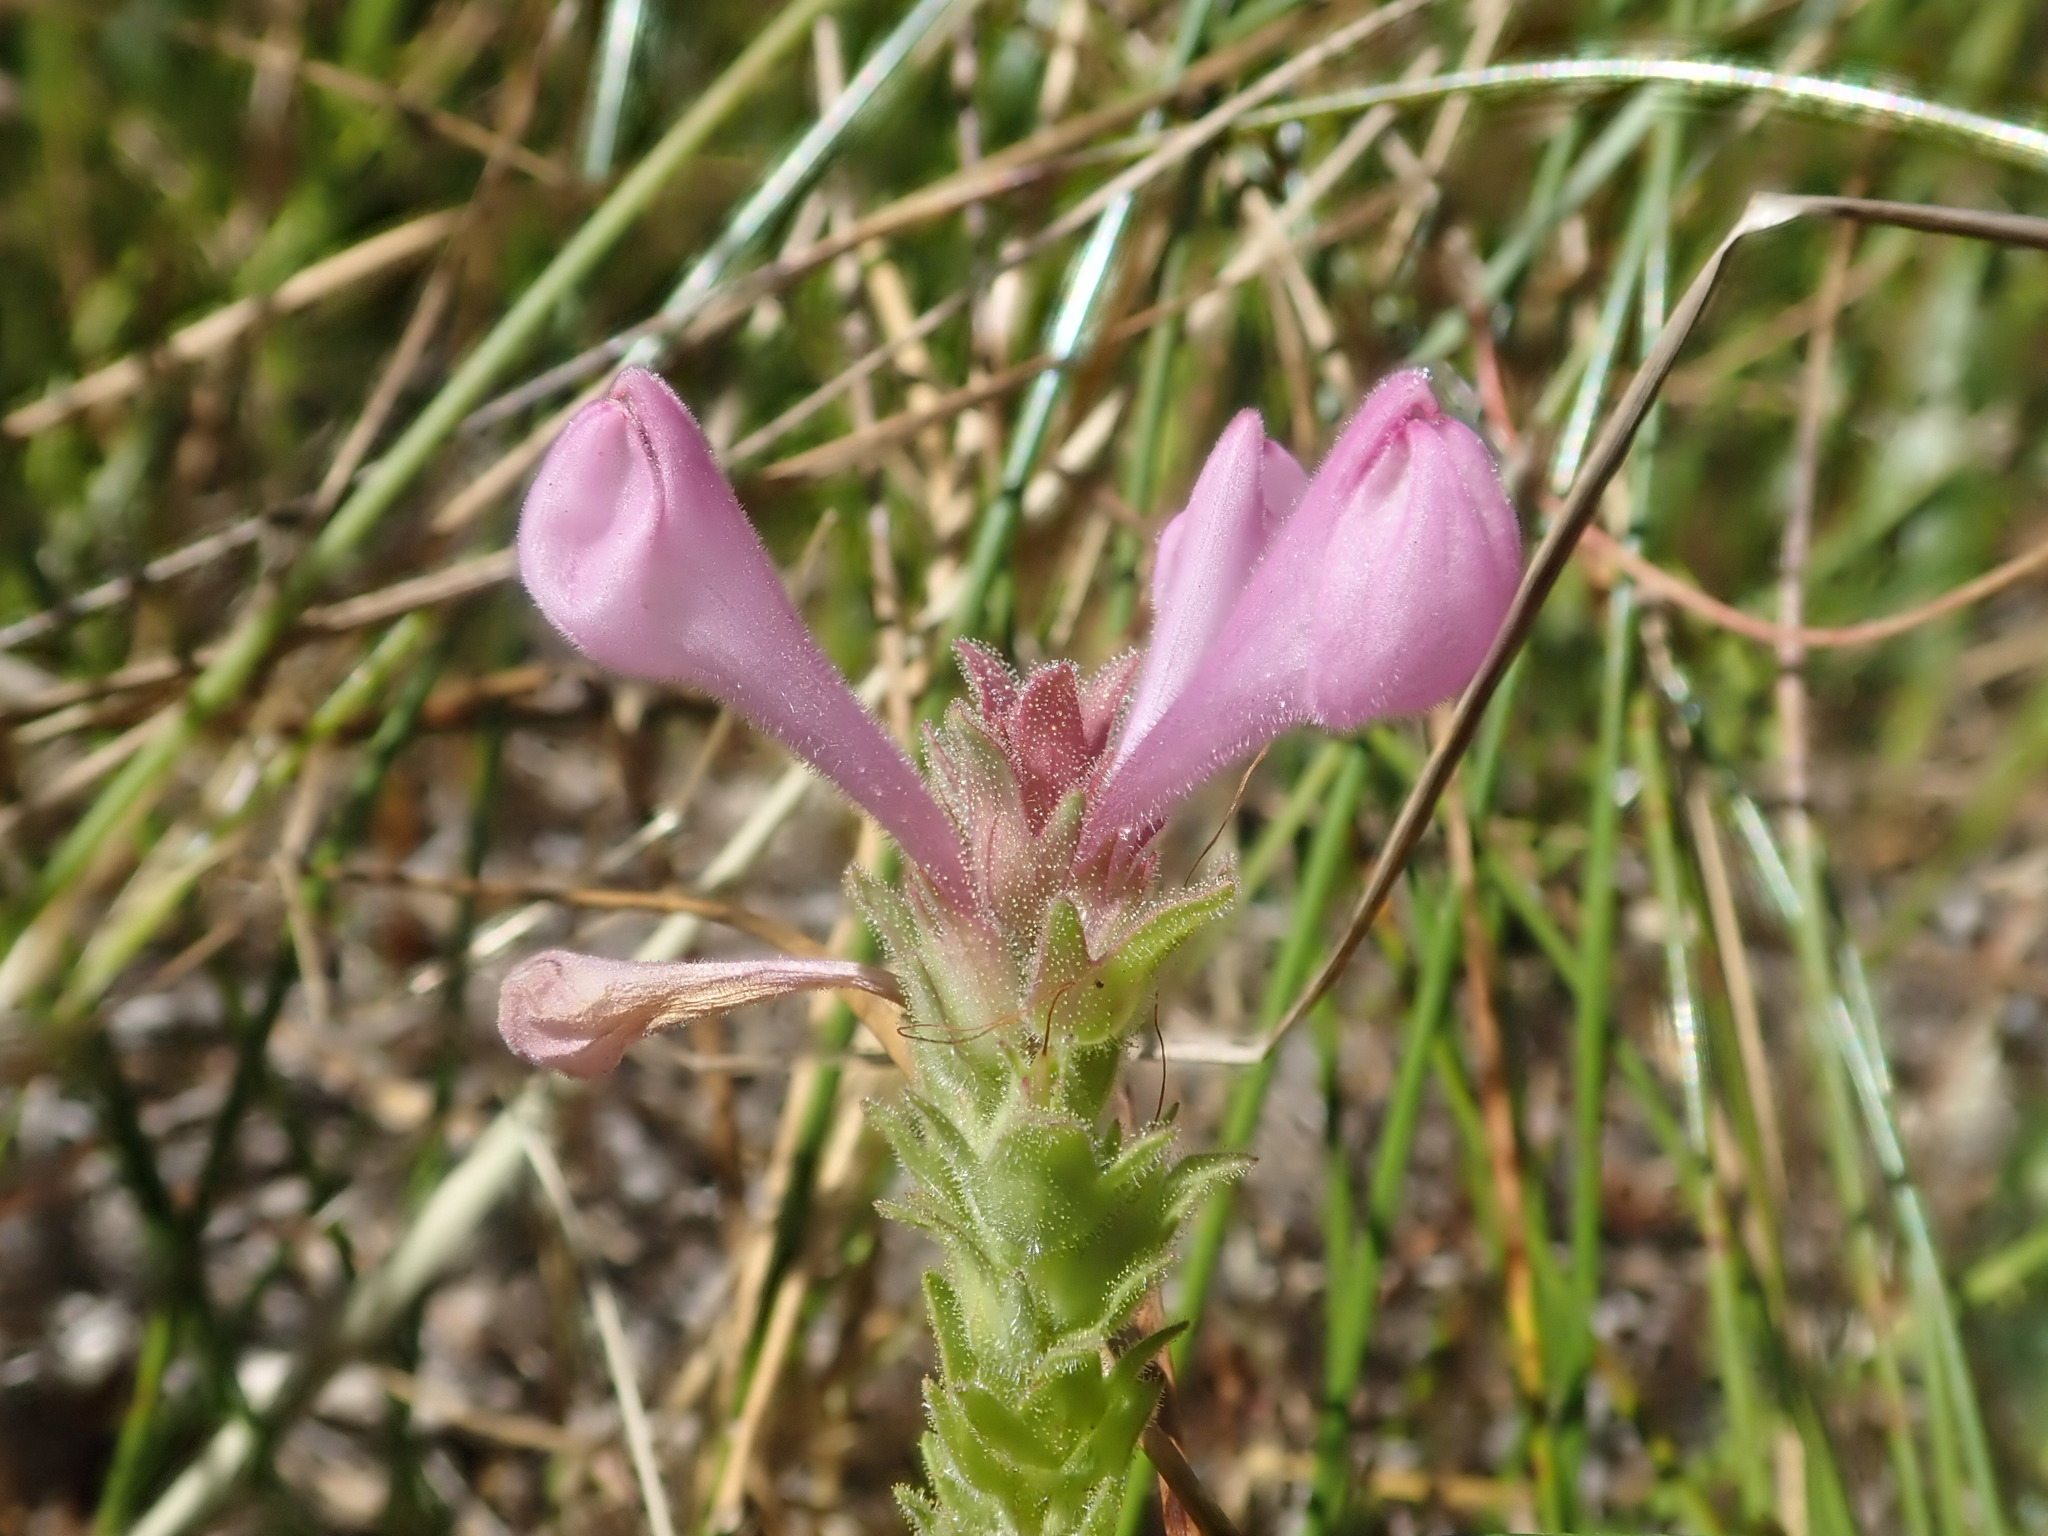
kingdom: Plantae
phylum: Tracheophyta
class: Magnoliopsida
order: Lamiales
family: Orobanchaceae
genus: Orthocarpus
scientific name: Orthocarpus bracteosus
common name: Rosy owl's-clover
